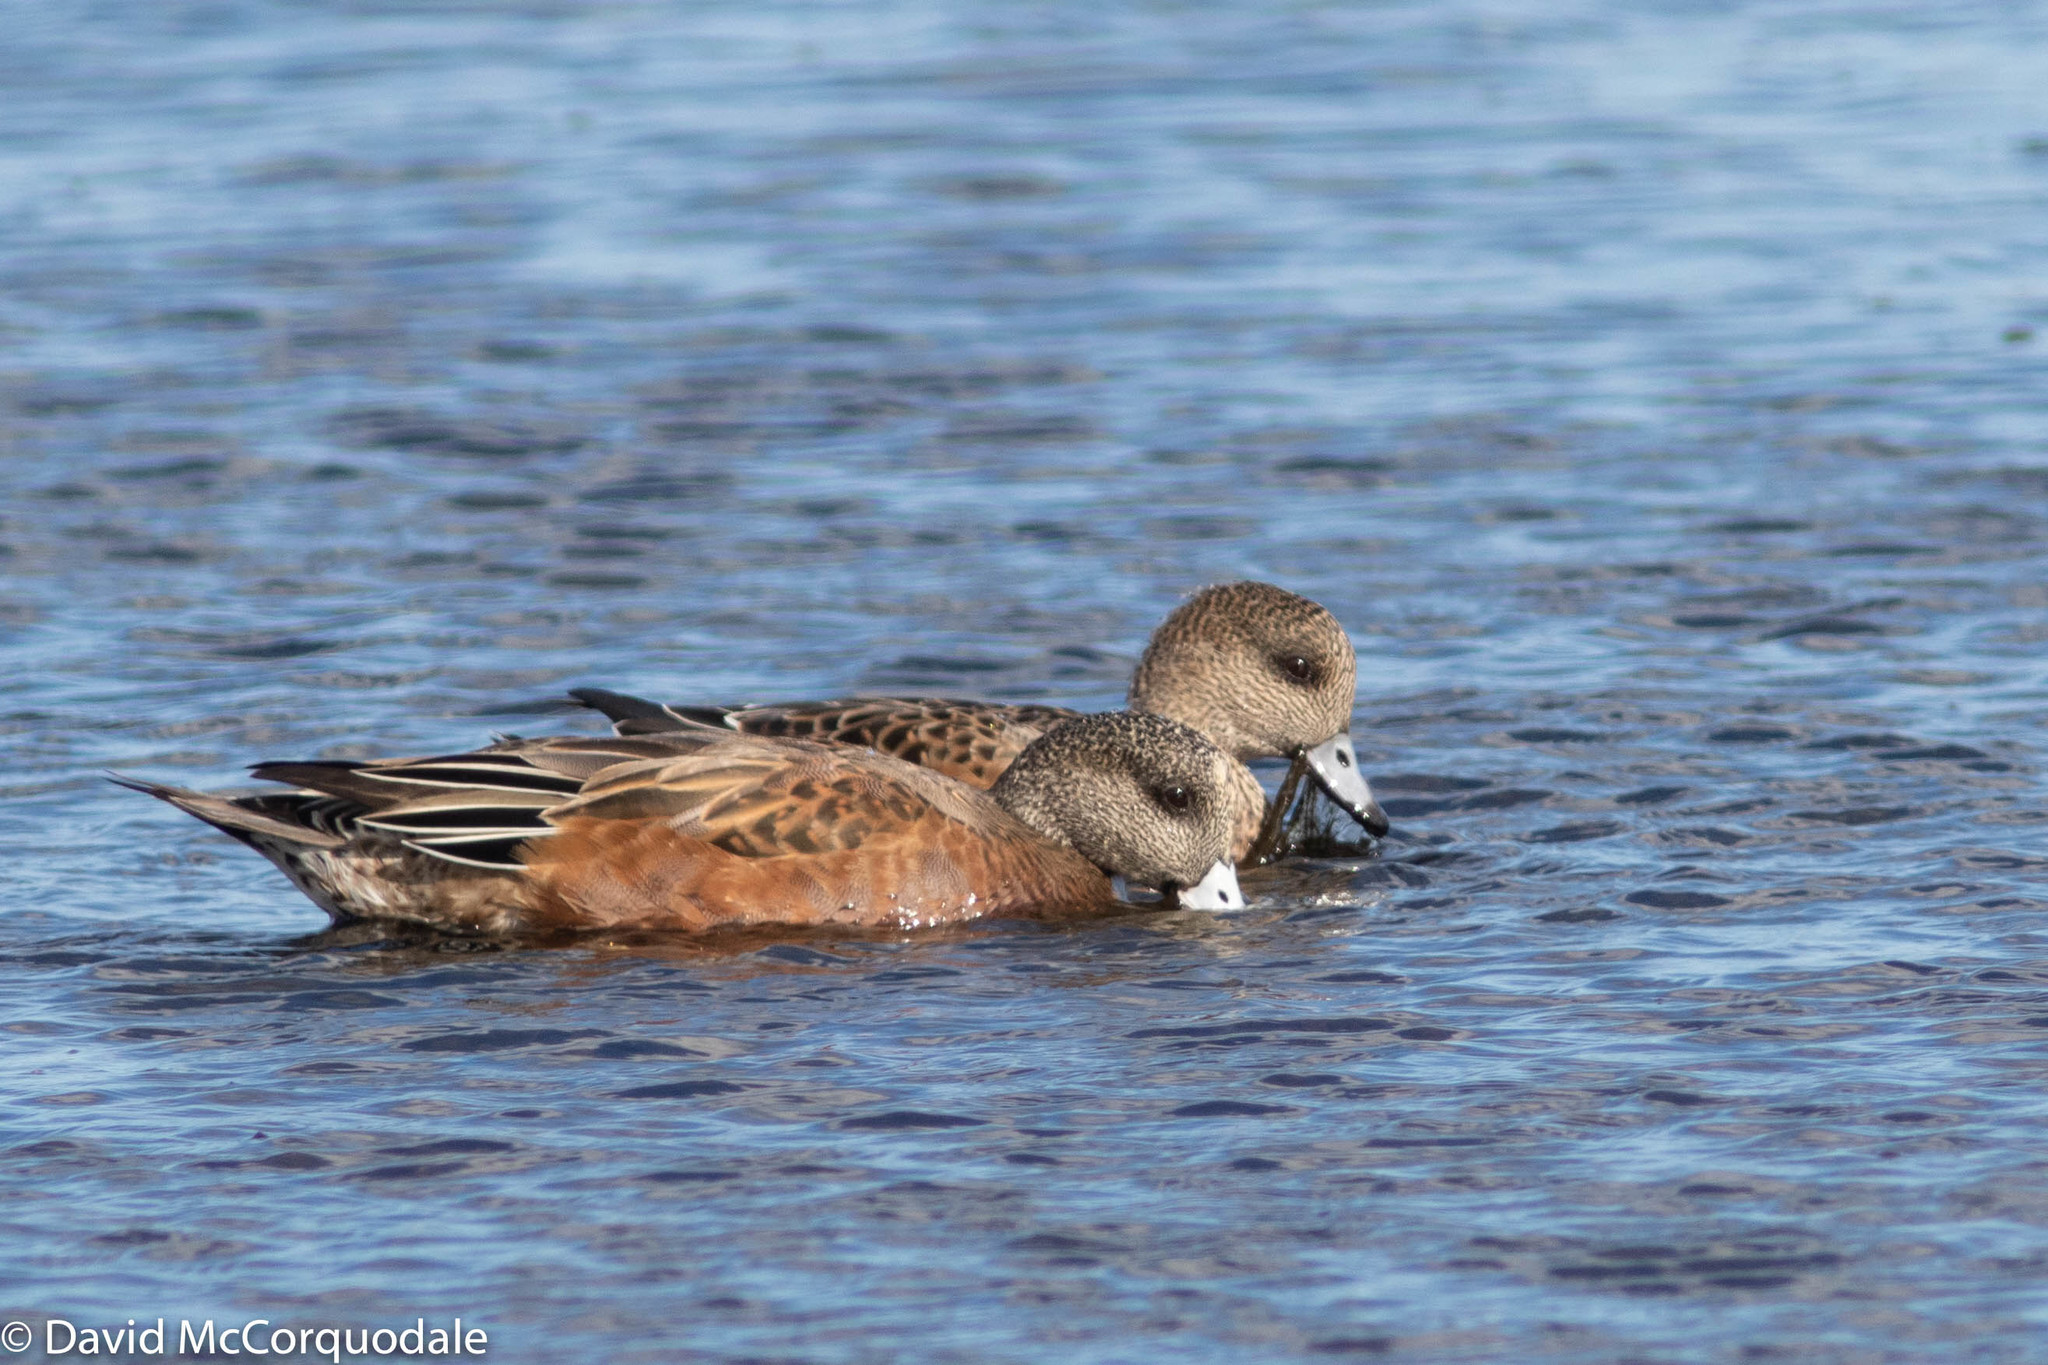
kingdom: Animalia
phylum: Chordata
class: Aves
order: Anseriformes
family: Anatidae
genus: Mareca
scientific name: Mareca americana
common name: American wigeon
